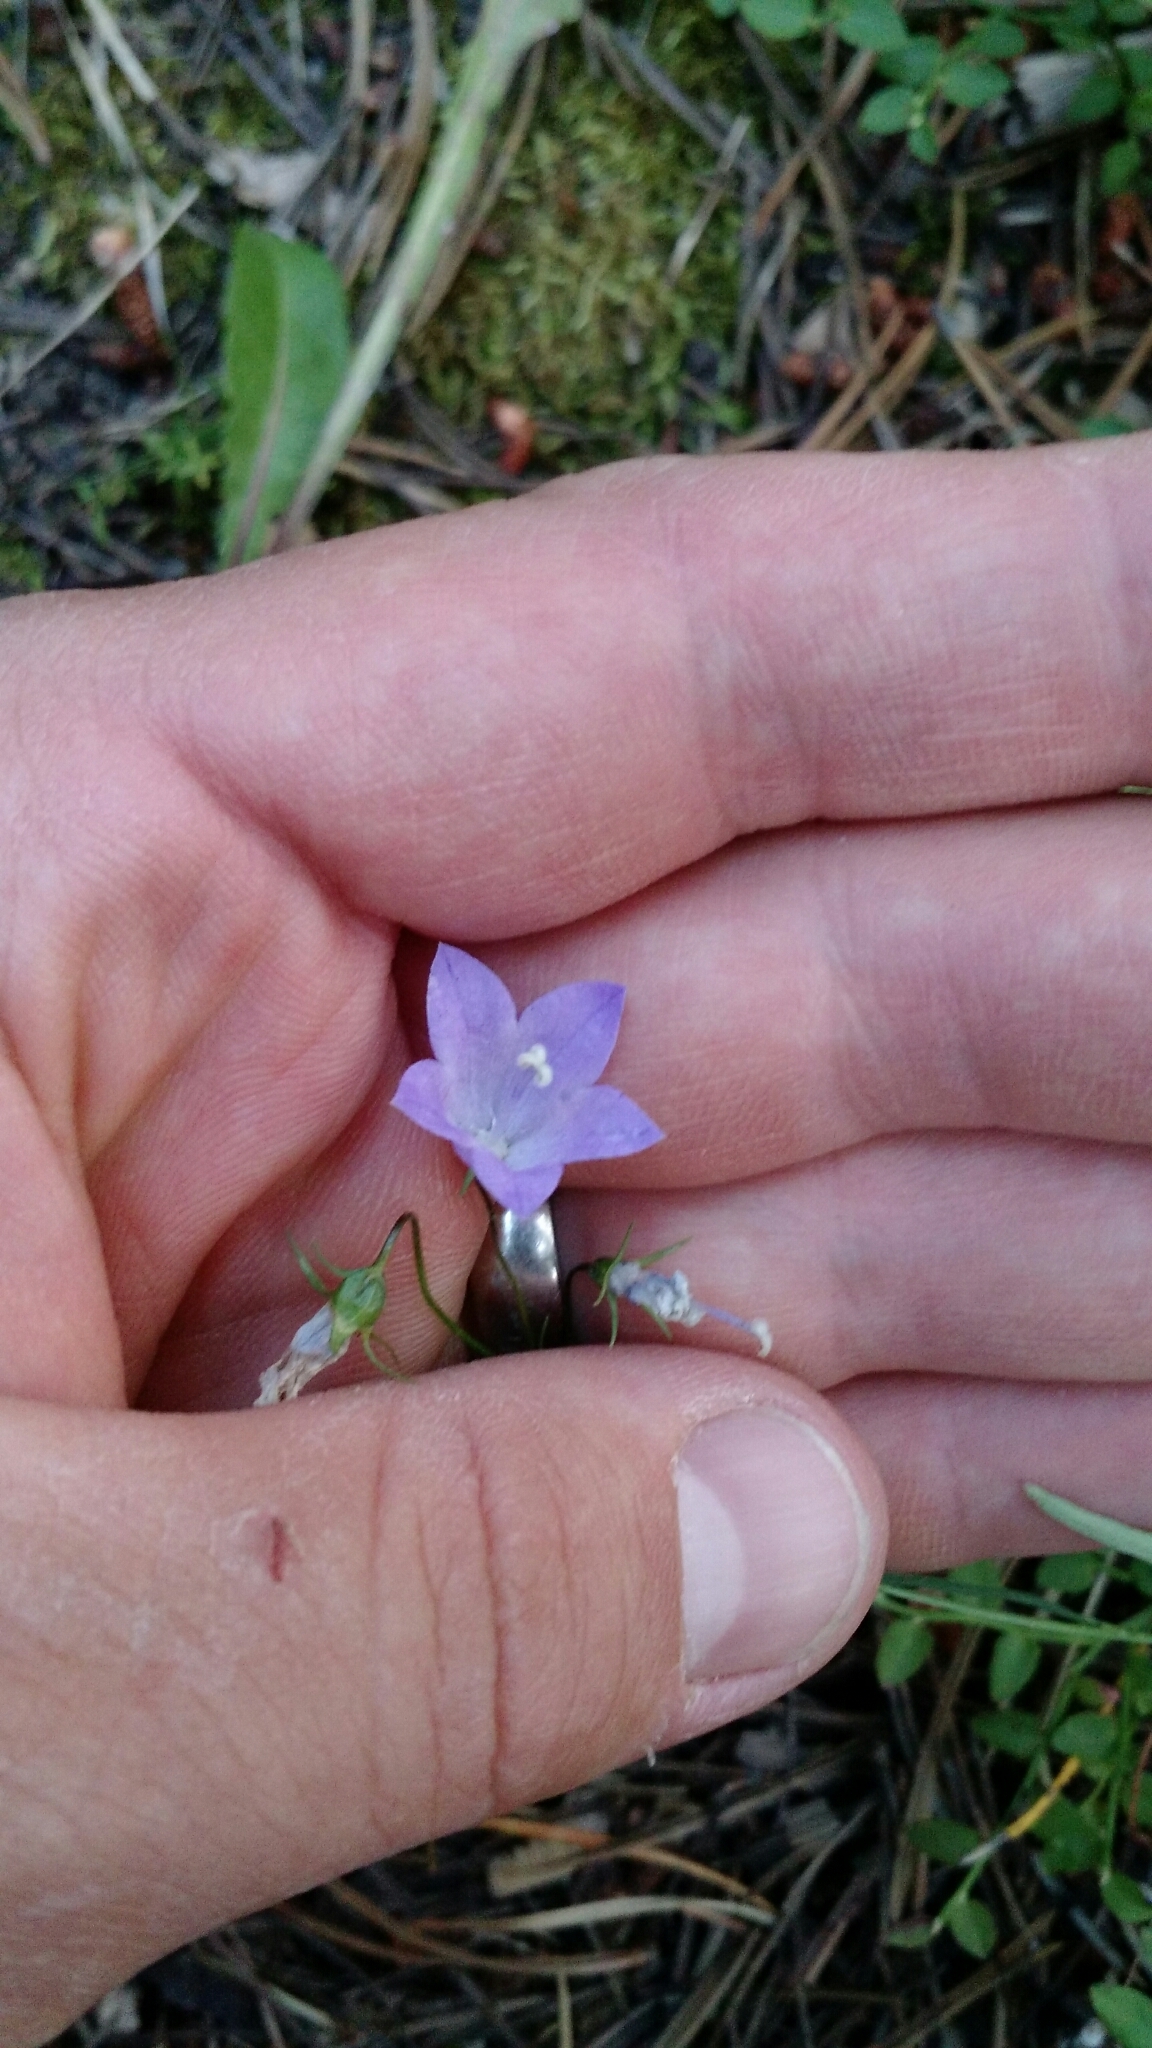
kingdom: Plantae
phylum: Tracheophyta
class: Magnoliopsida
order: Asterales
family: Campanulaceae
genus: Campanula
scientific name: Campanula petiolata
